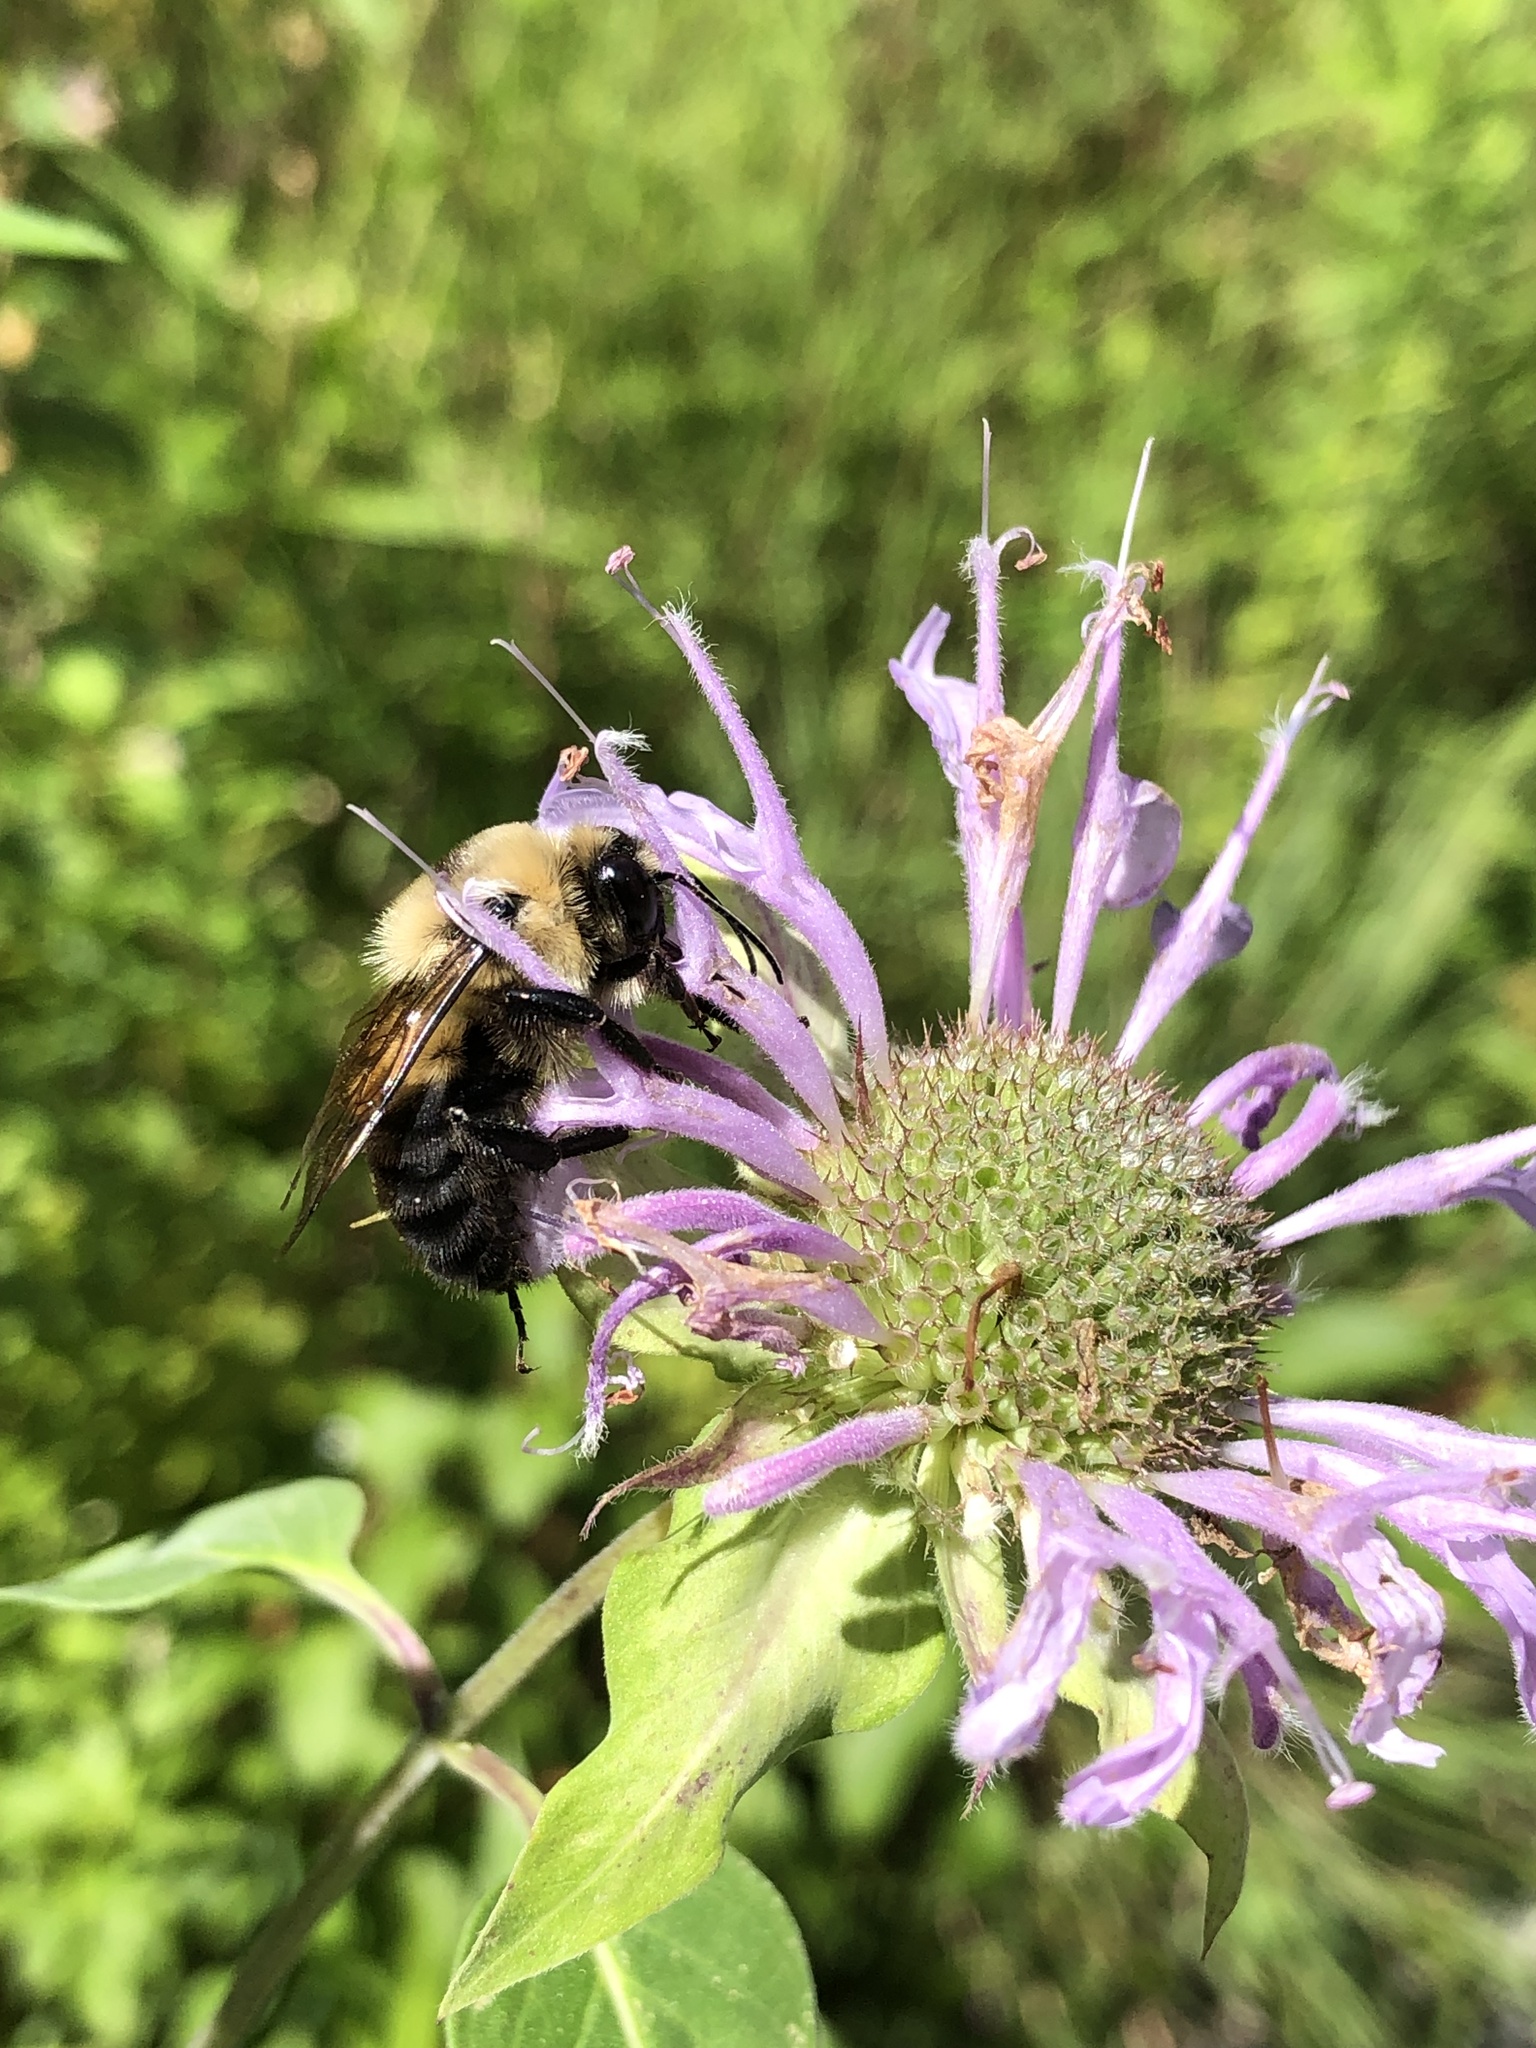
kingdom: Animalia
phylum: Arthropoda
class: Insecta
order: Hymenoptera
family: Apidae
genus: Bombus
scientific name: Bombus griseocollis
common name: Brown-belted bumble bee
